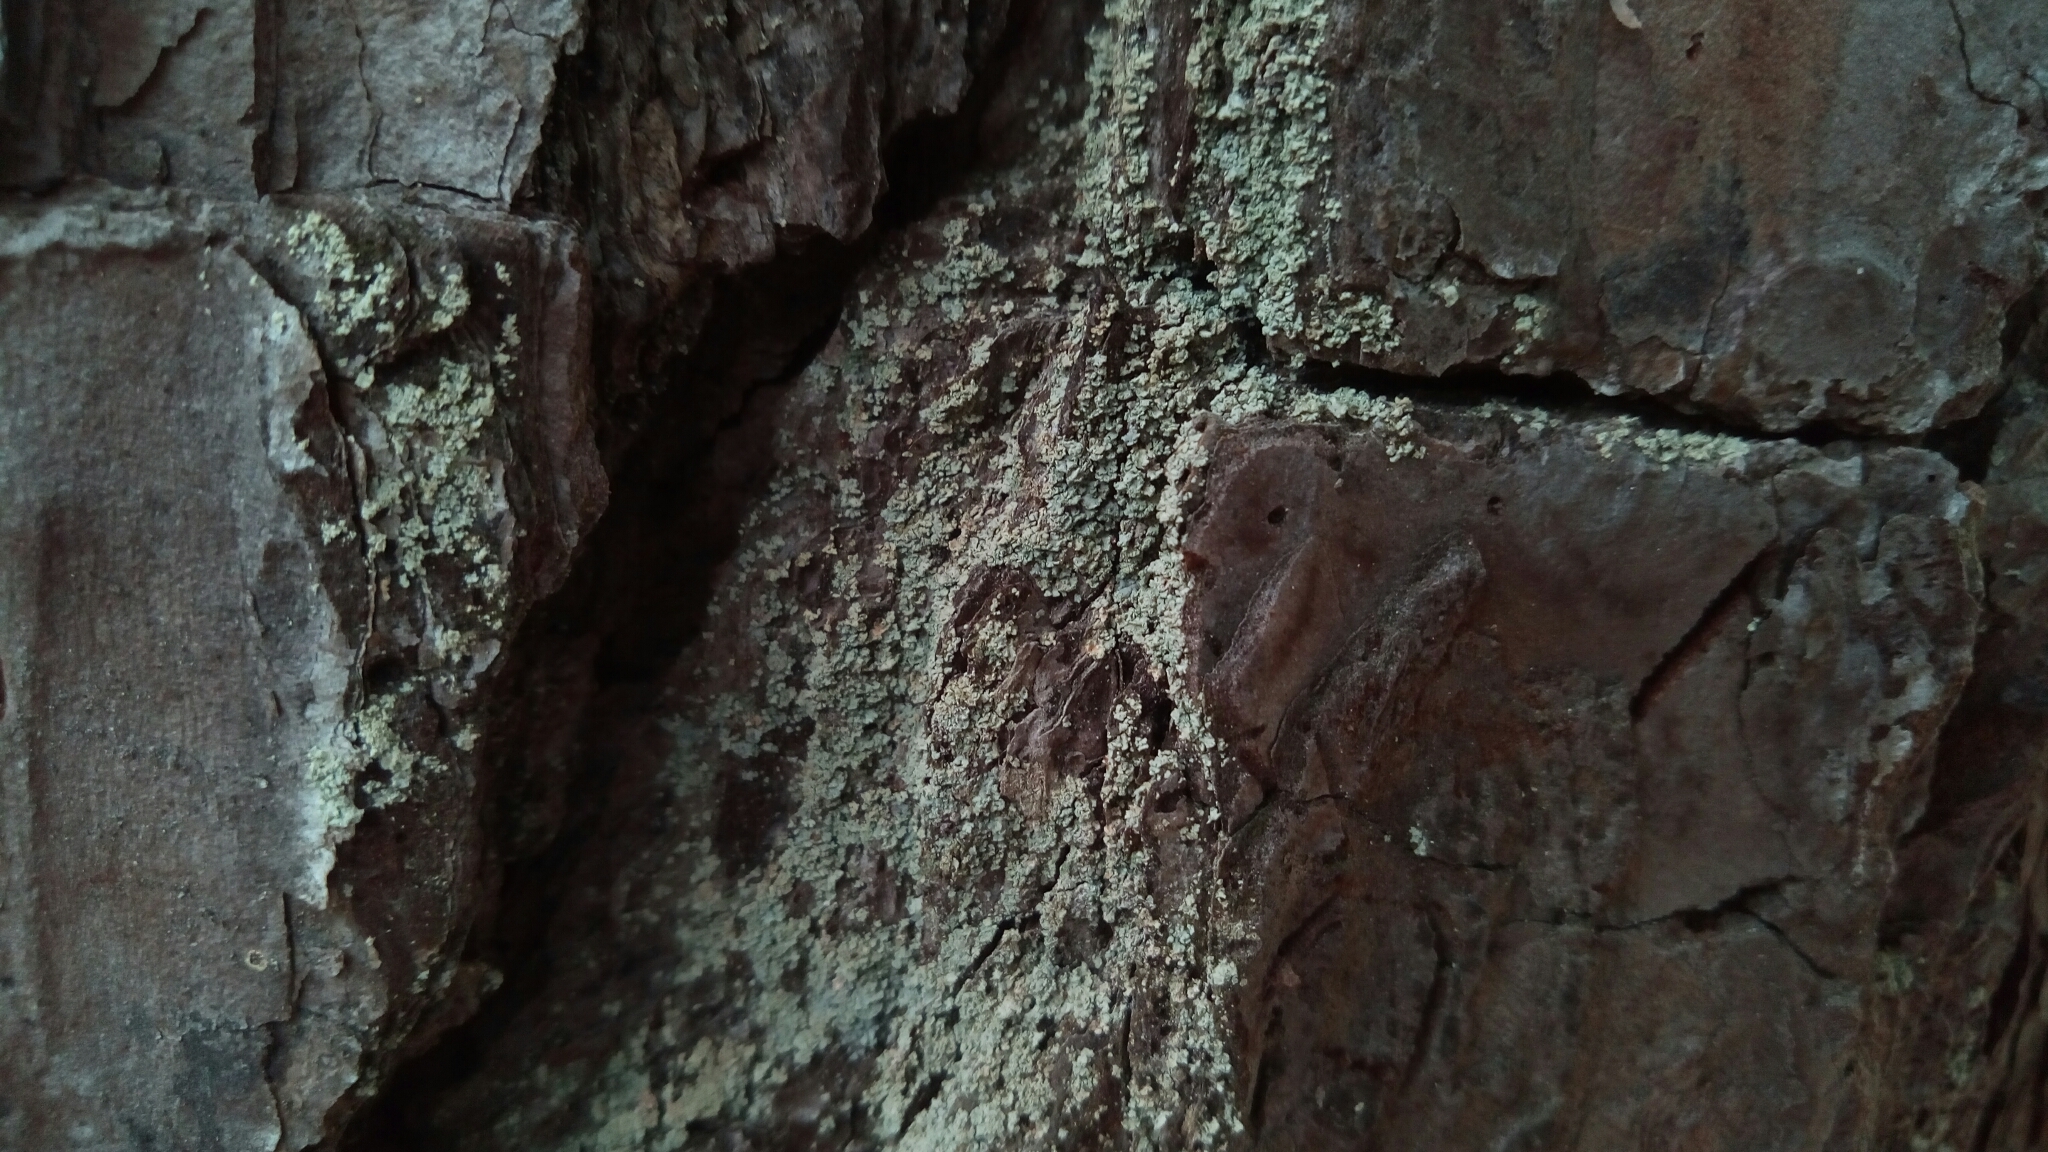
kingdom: Fungi
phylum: Ascomycota
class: Lecanoromycetes
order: Umbilicariales
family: Ophioparmaceae
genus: Hypocenomyce
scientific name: Hypocenomyce scalaris
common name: Common clam lichen
